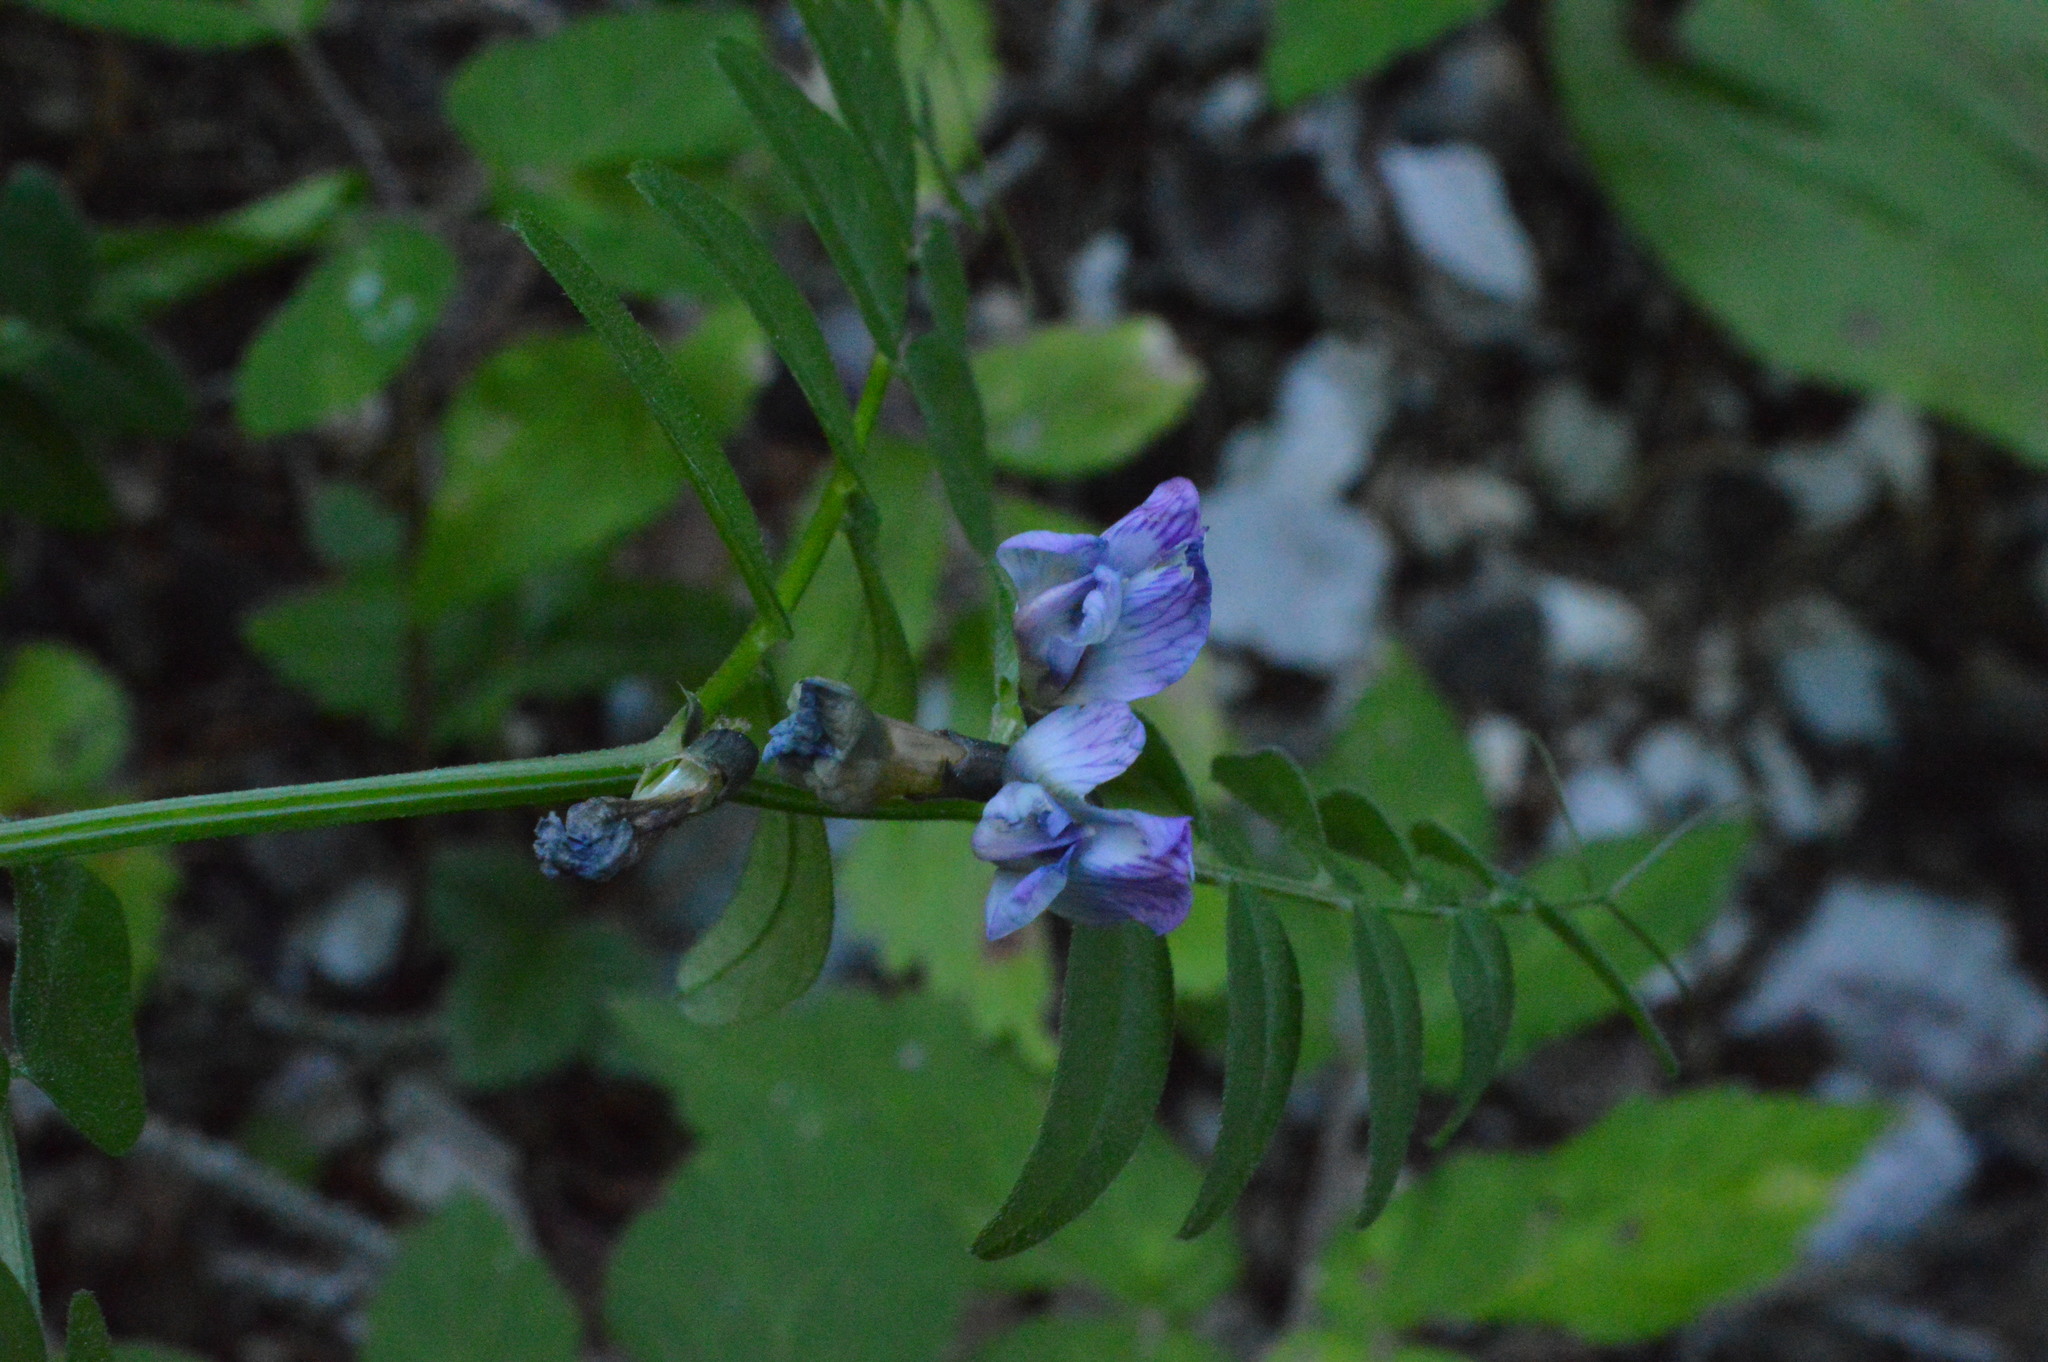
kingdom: Plantae
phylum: Tracheophyta
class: Magnoliopsida
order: Fabales
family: Fabaceae
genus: Vicia
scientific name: Vicia sepium
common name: Bush vetch
